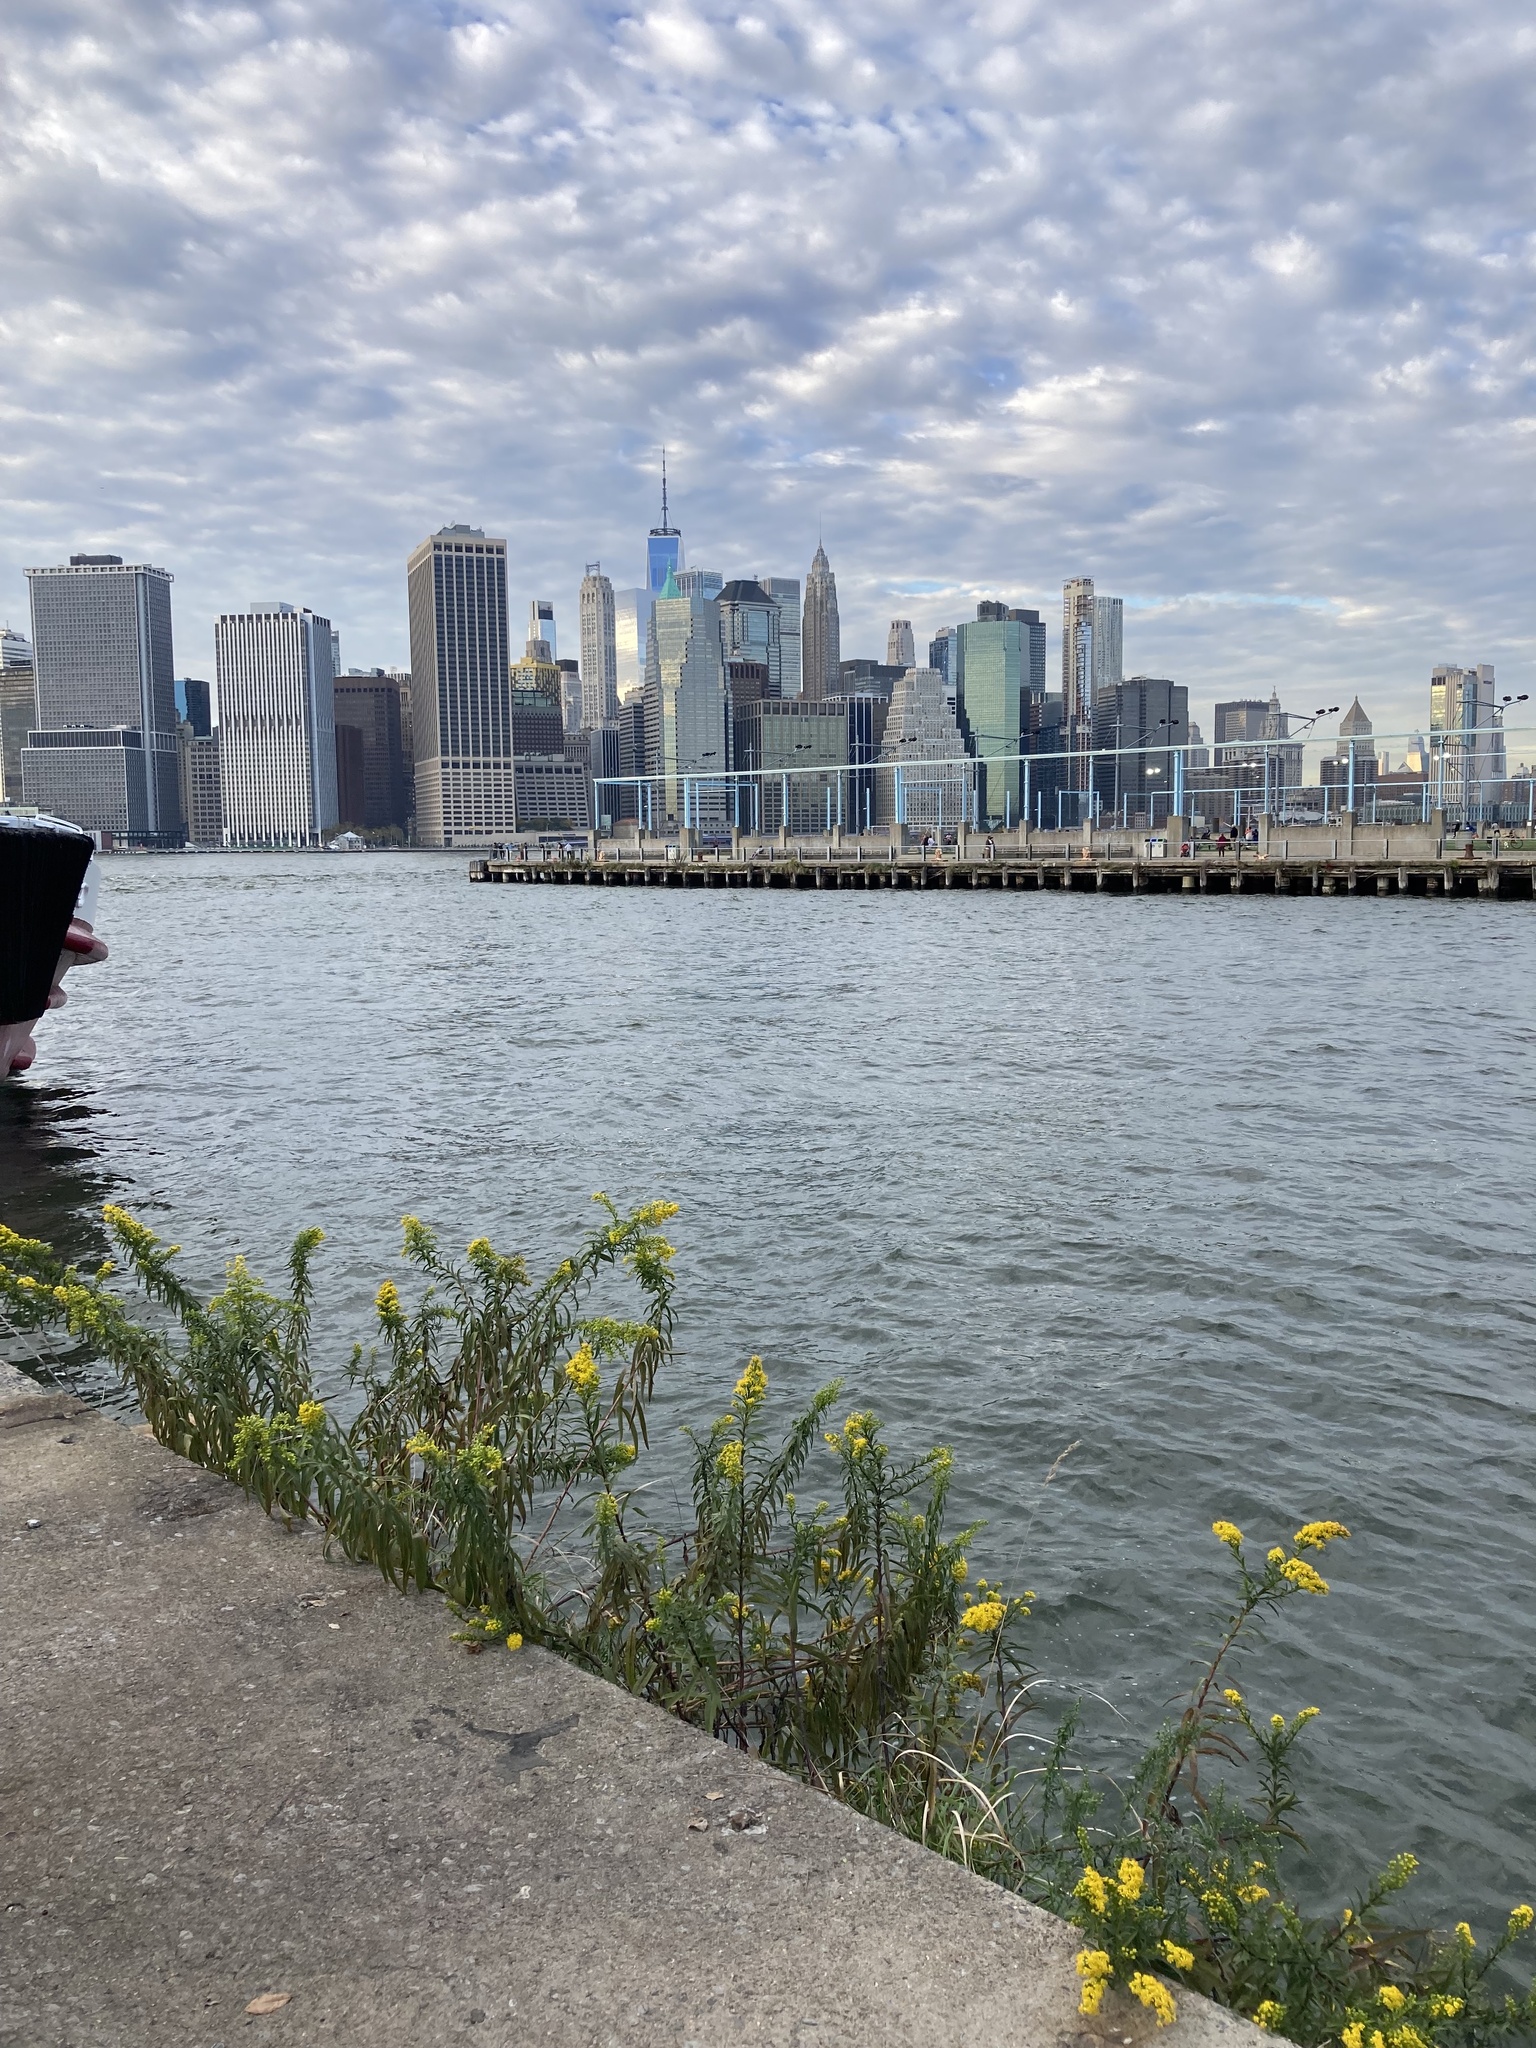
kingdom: Plantae
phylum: Tracheophyta
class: Magnoliopsida
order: Asterales
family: Asteraceae
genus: Solidago
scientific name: Solidago sempervirens
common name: Salt-marsh goldenrod
